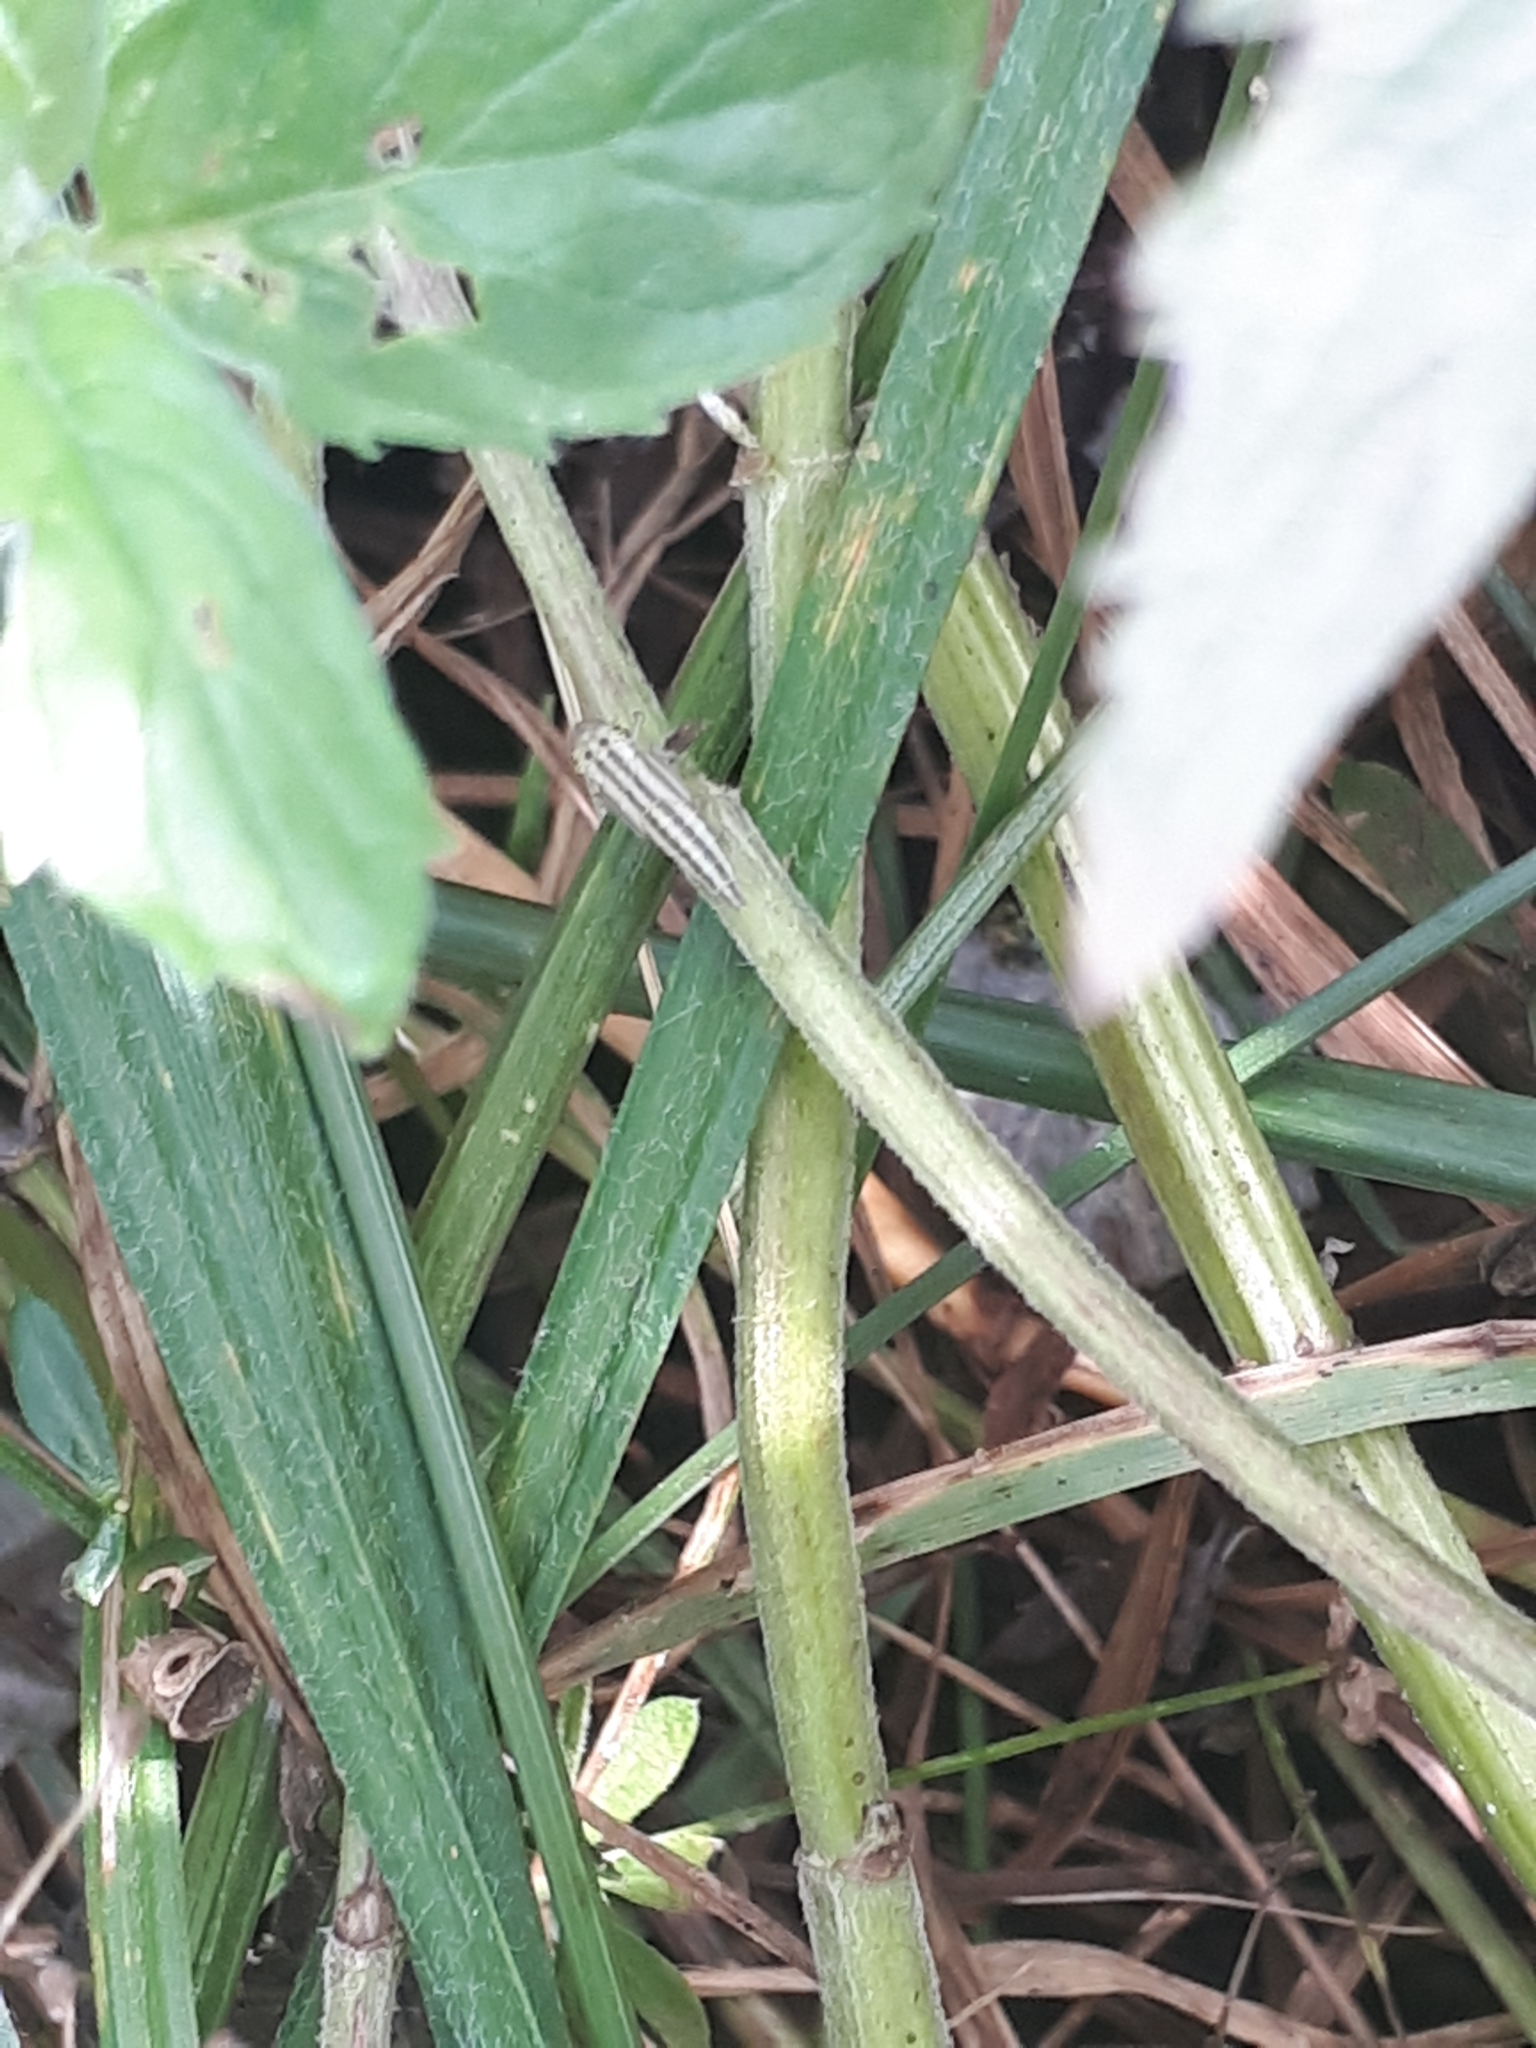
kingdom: Animalia
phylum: Arthropoda
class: Insecta
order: Hemiptera
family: Cicadellidae
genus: Cicadella
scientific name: Cicadella viridis
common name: Leafhopper
